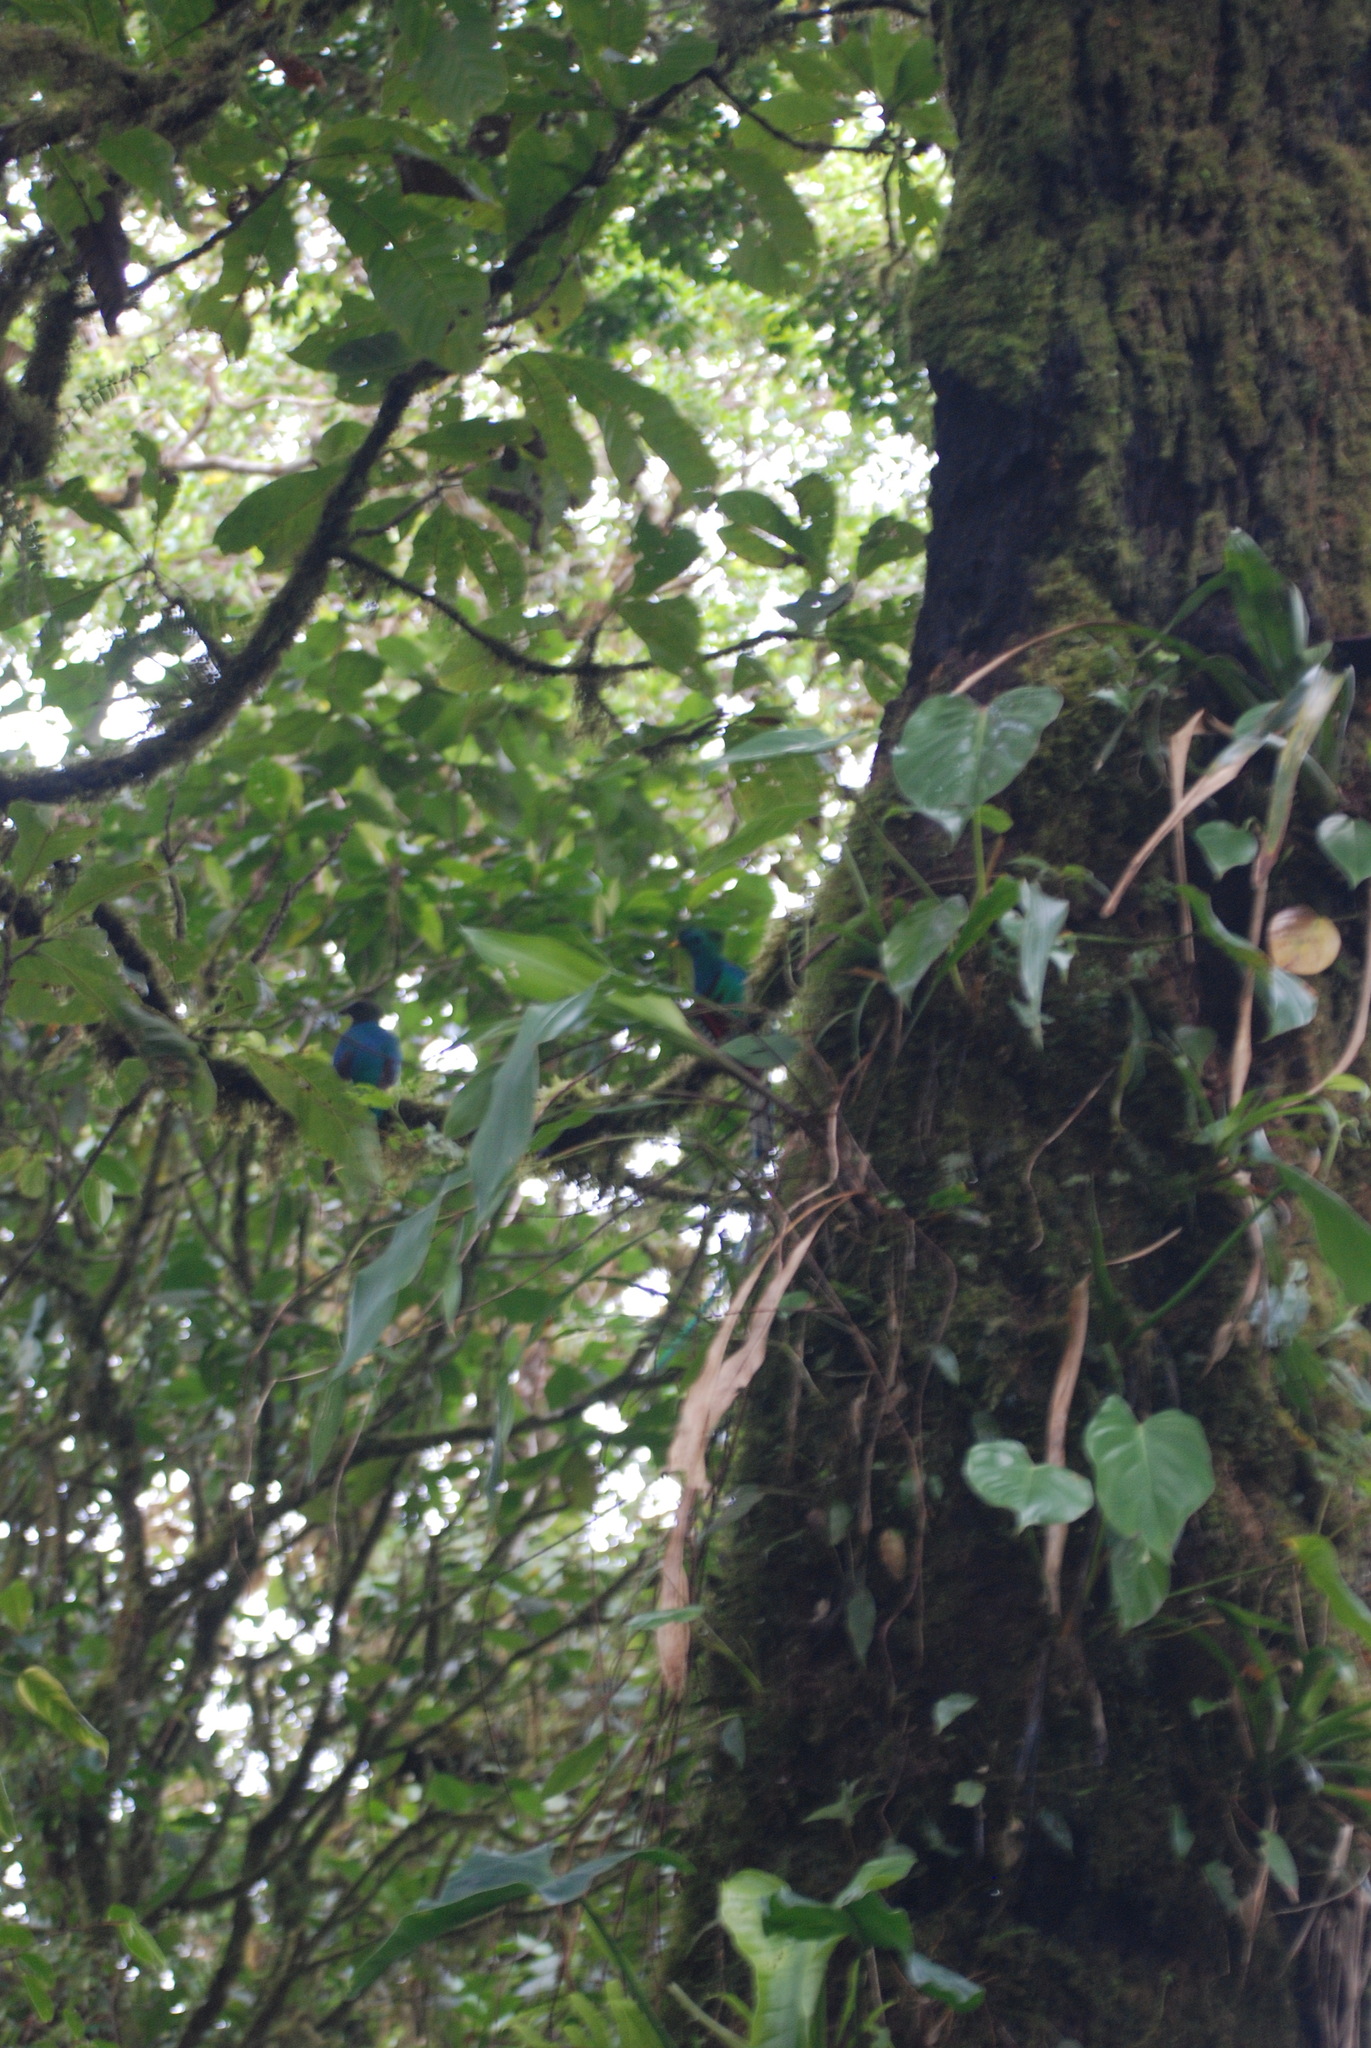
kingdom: Animalia
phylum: Chordata
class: Aves
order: Trogoniformes
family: Trogonidae
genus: Pharomachrus
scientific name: Pharomachrus mocinno
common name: Resplendent quetzal
